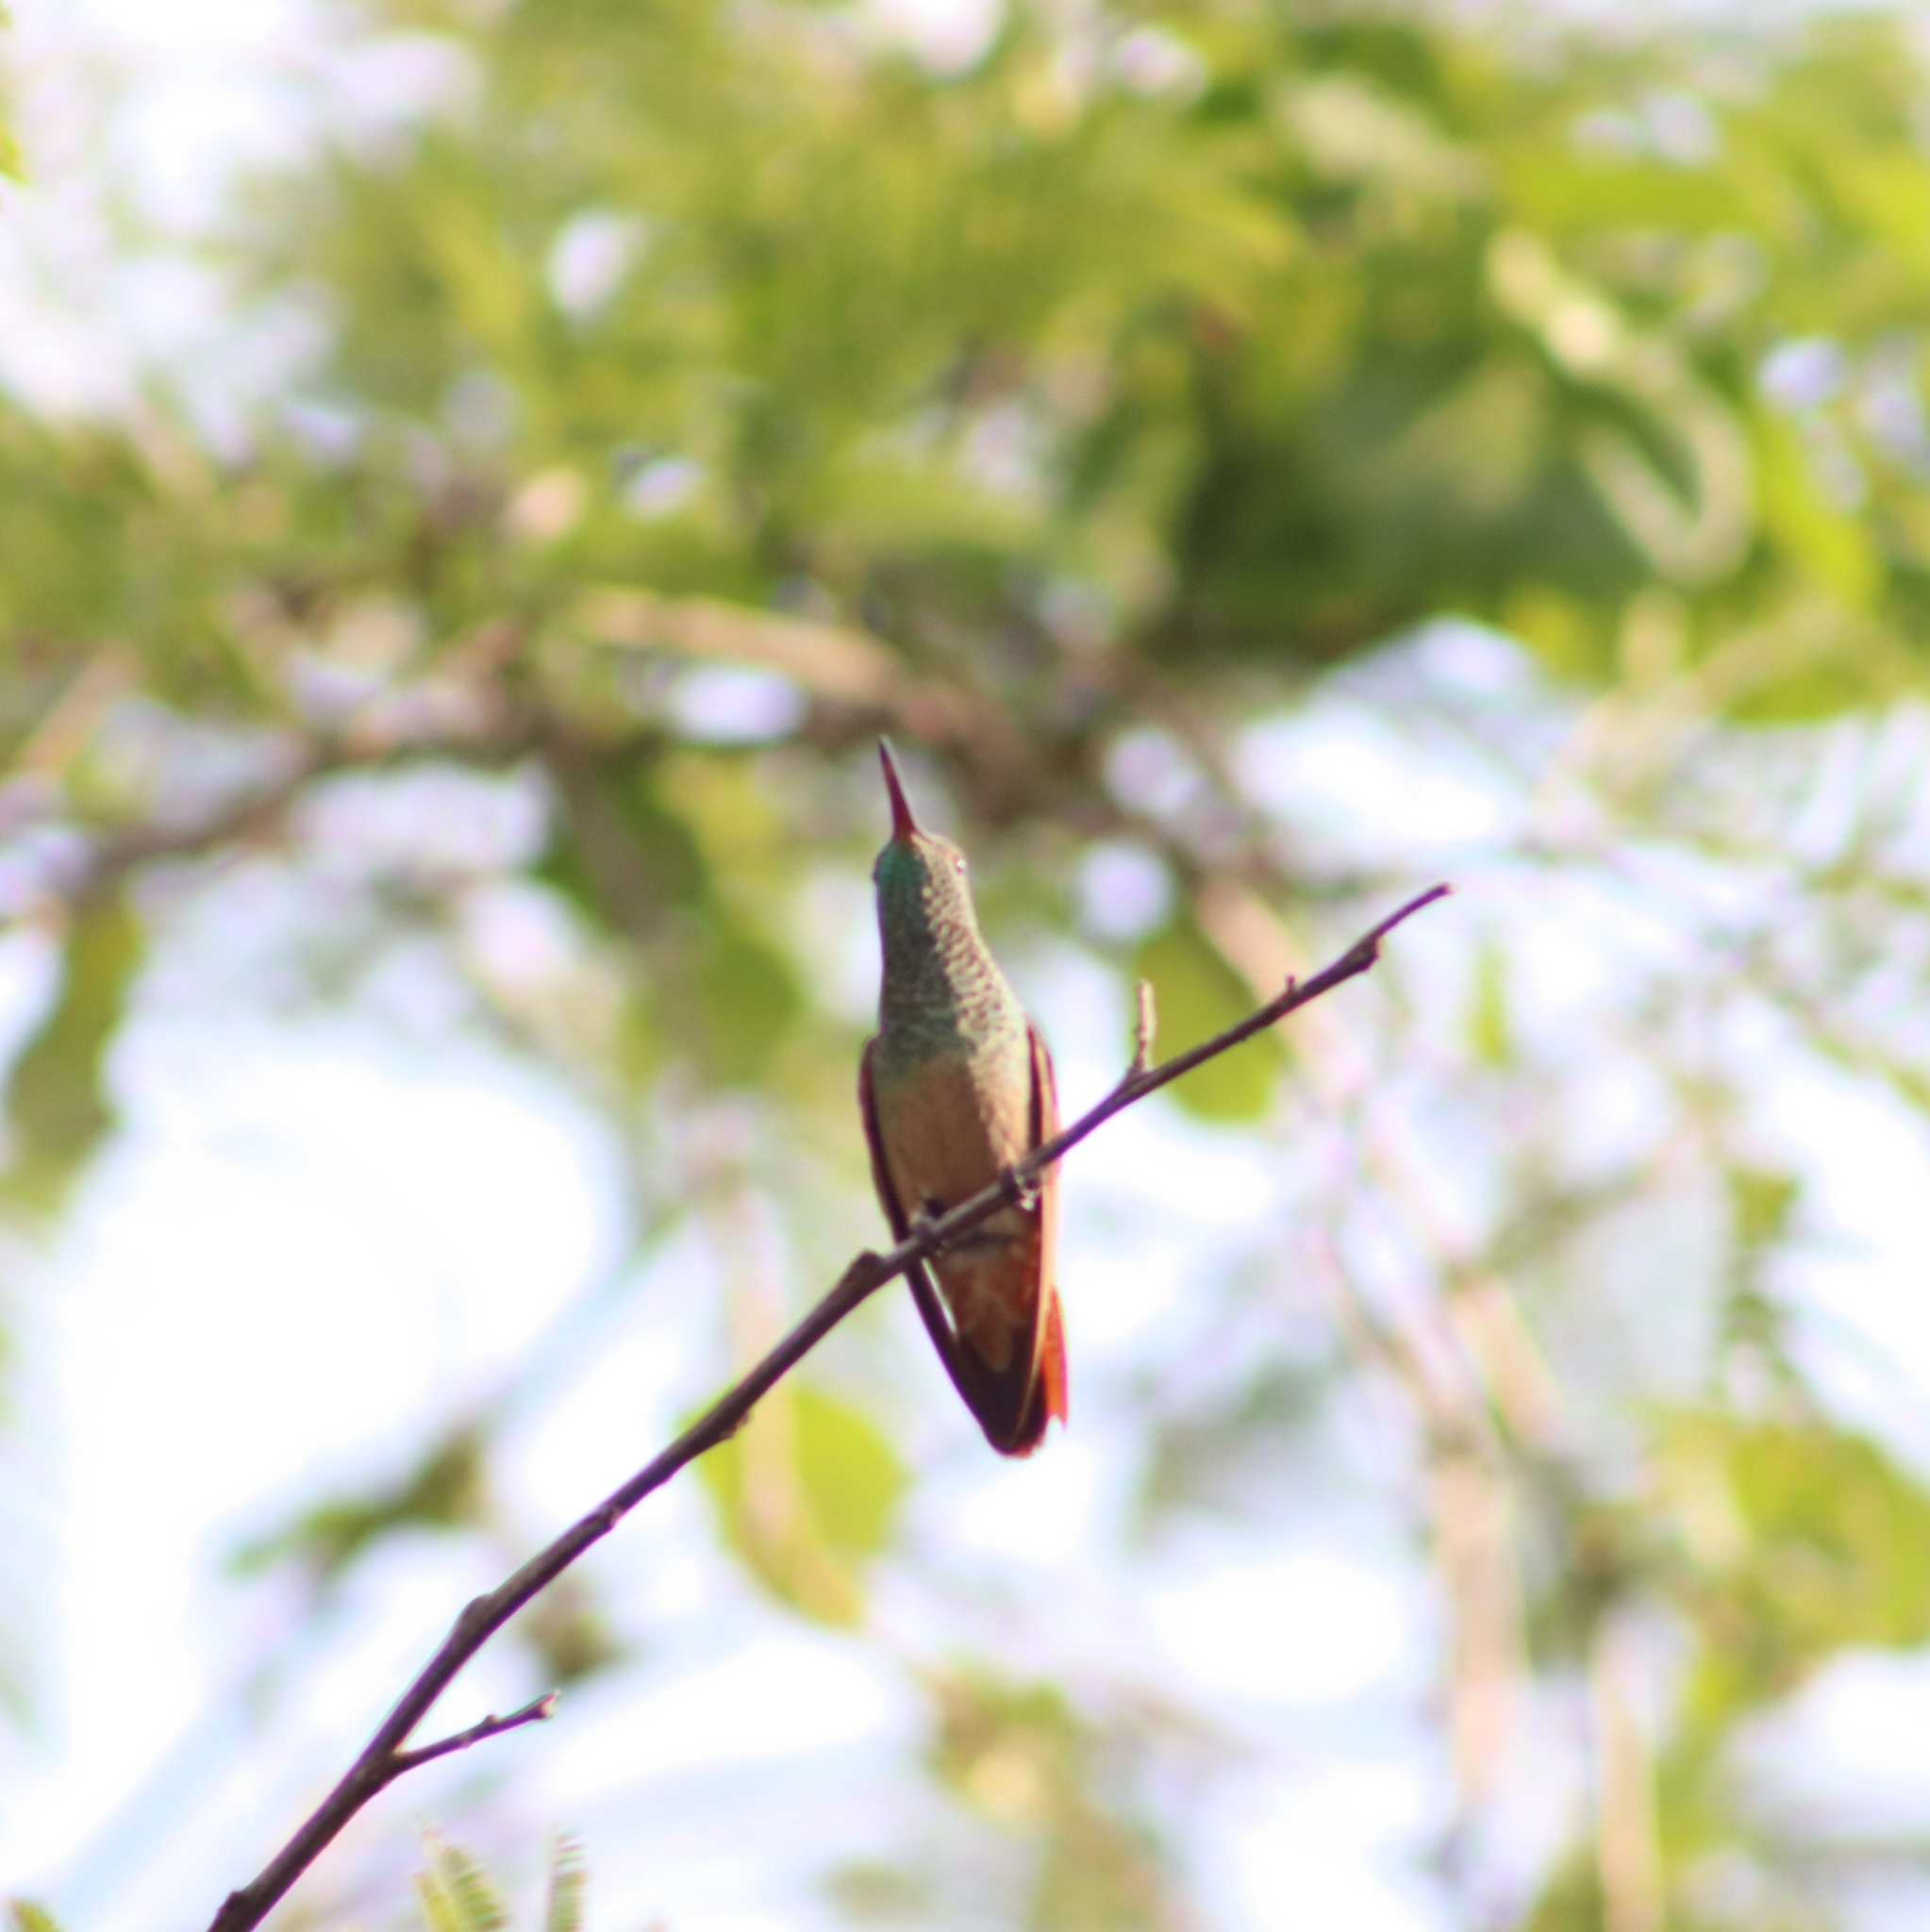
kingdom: Animalia
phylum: Chordata
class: Aves
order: Apodiformes
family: Trochilidae
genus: Saucerottia
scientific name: Saucerottia beryllina
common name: Berylline hummingbird
